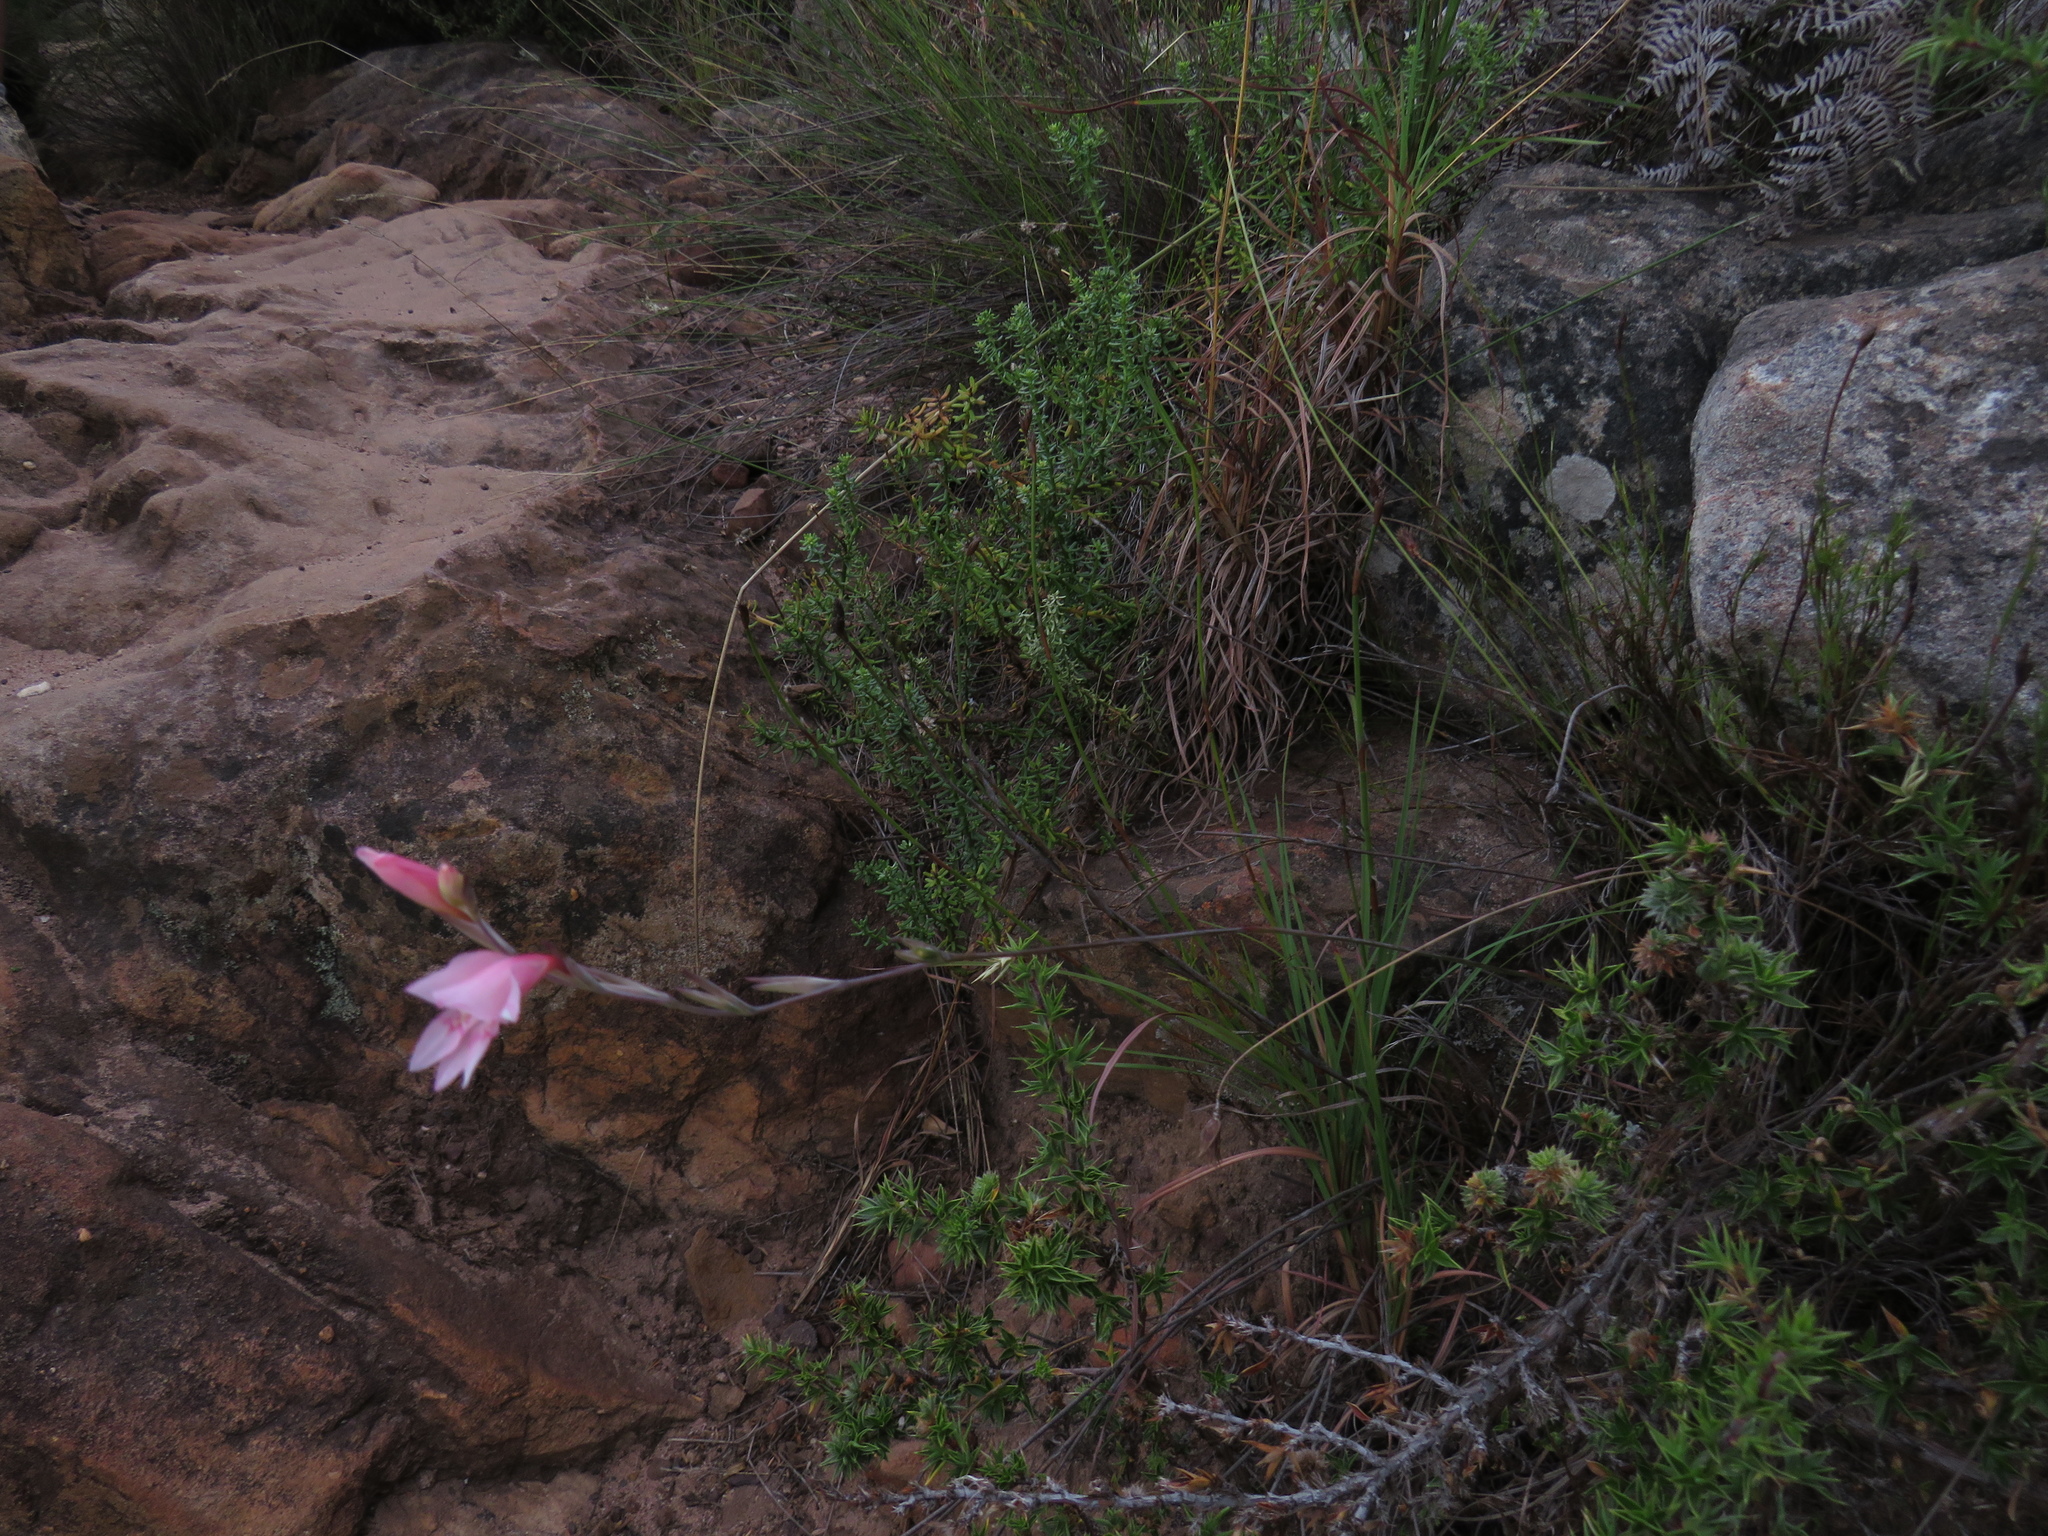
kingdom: Plantae
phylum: Tracheophyta
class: Liliopsida
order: Asparagales
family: Iridaceae
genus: Gladiolus
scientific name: Gladiolus brevifolius
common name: March pypie
